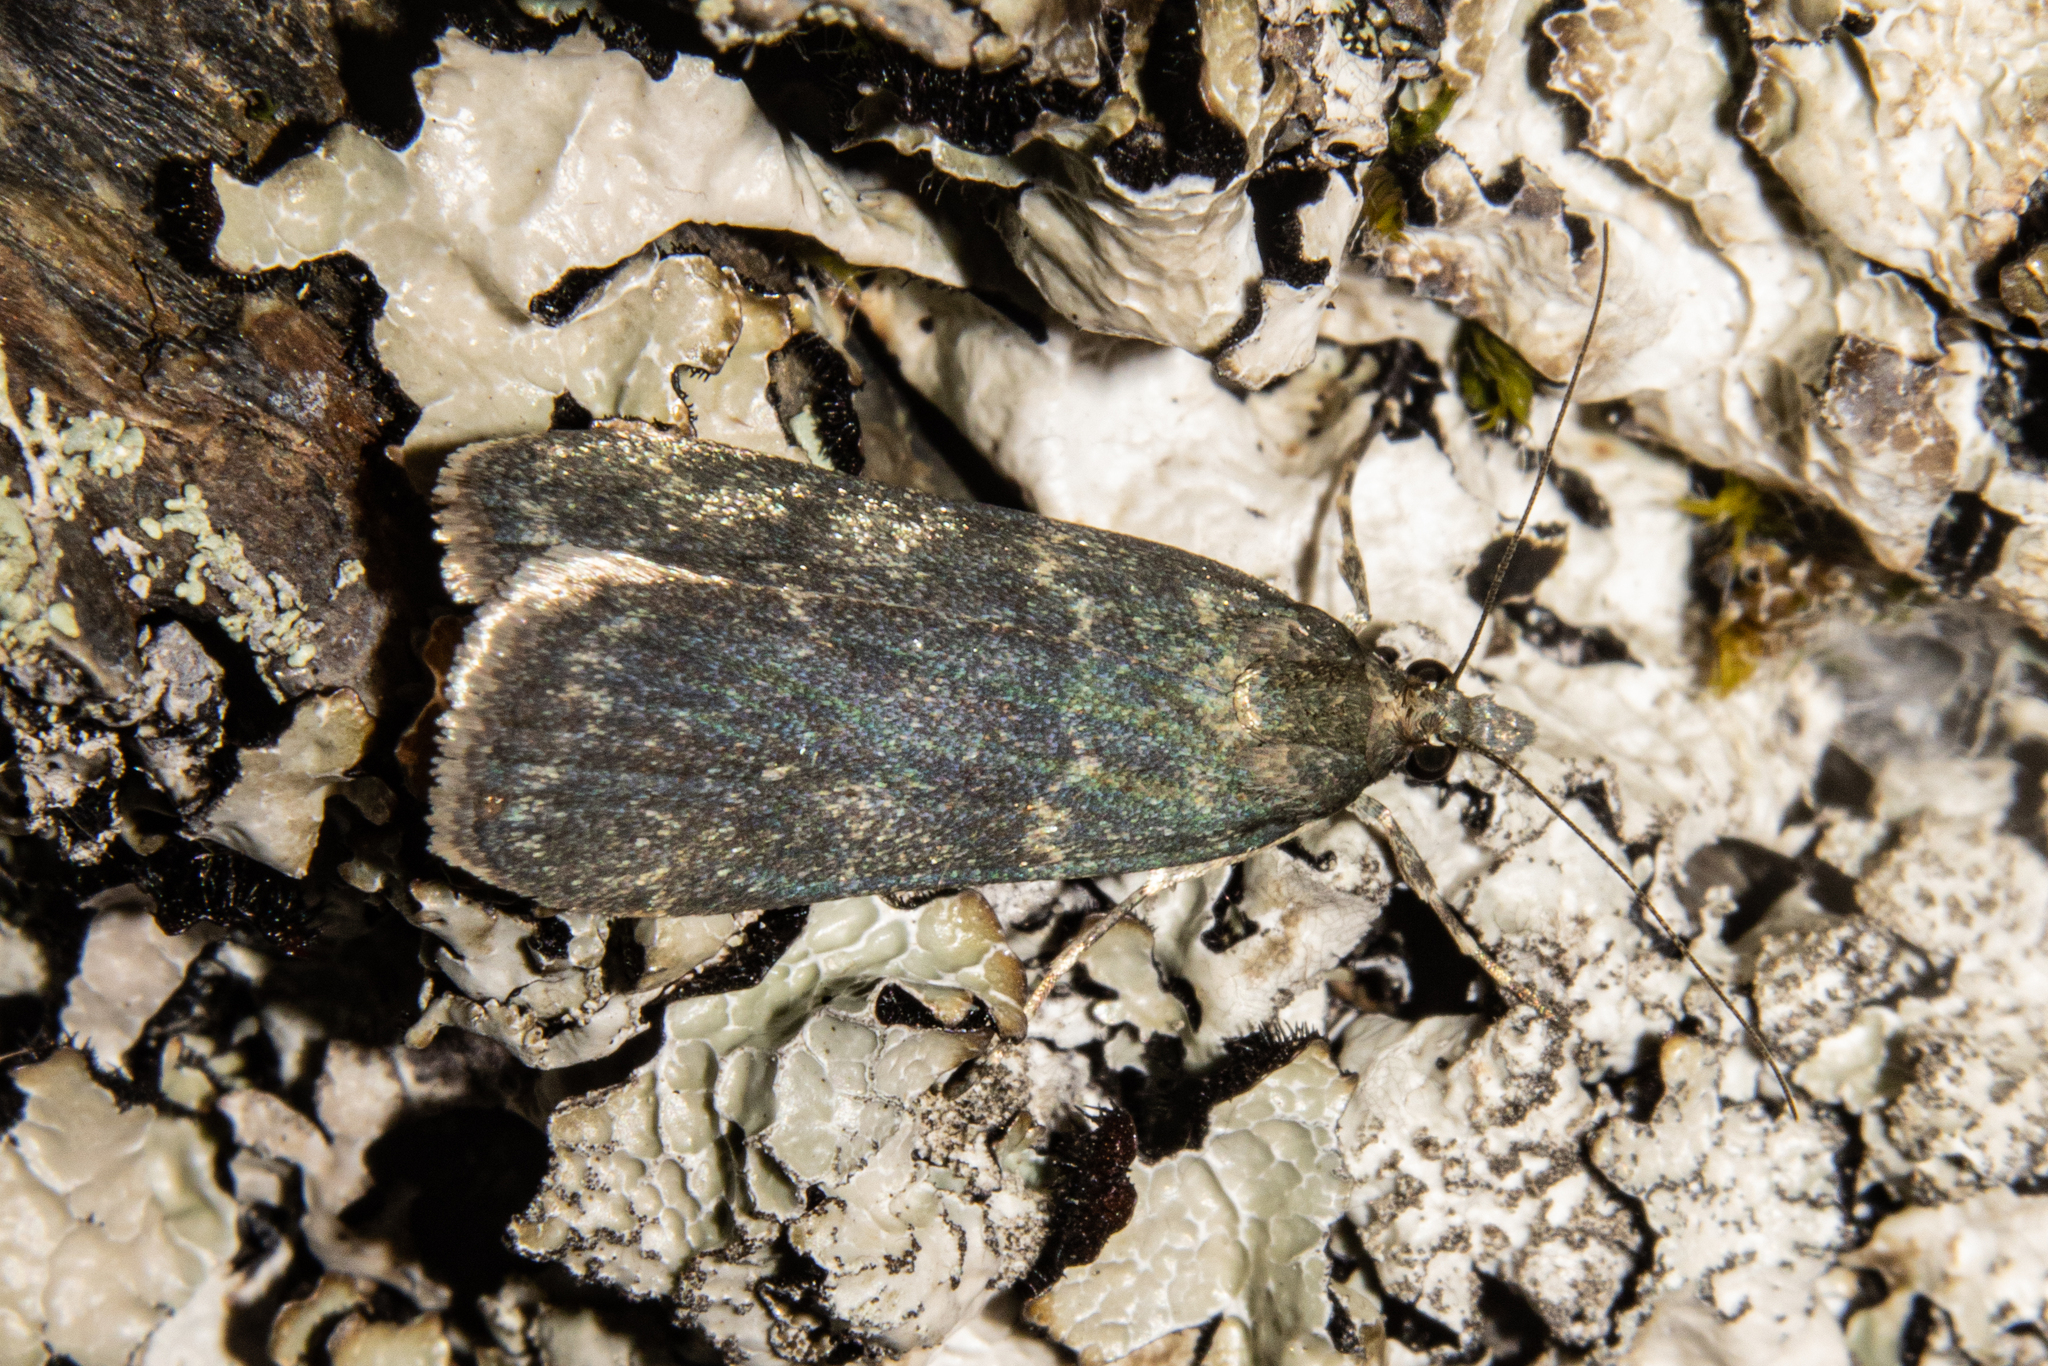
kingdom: Animalia
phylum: Arthropoda
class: Insecta
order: Lepidoptera
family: Crambidae
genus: Eudonia
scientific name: Eudonia cataxesta
